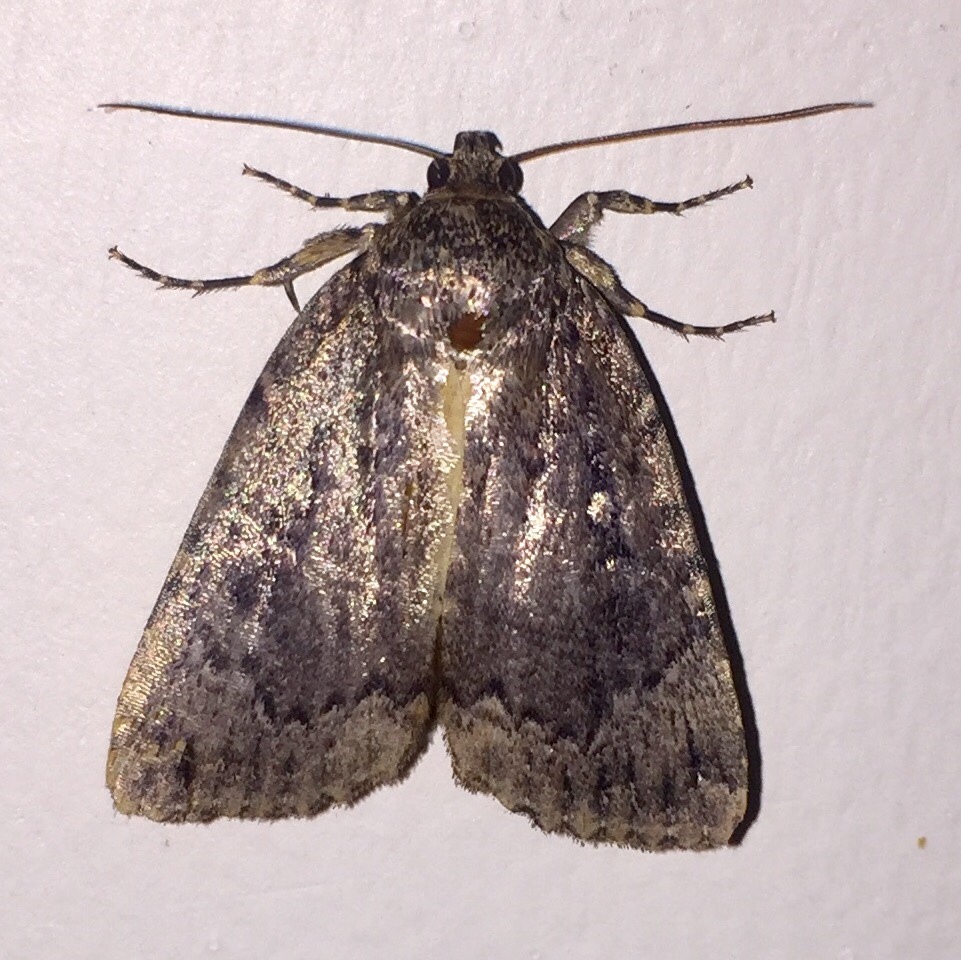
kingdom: Animalia
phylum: Arthropoda
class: Insecta
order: Lepidoptera
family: Noctuidae
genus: Amphipyra
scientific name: Amphipyra pyramidoides
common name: American copper underwing
